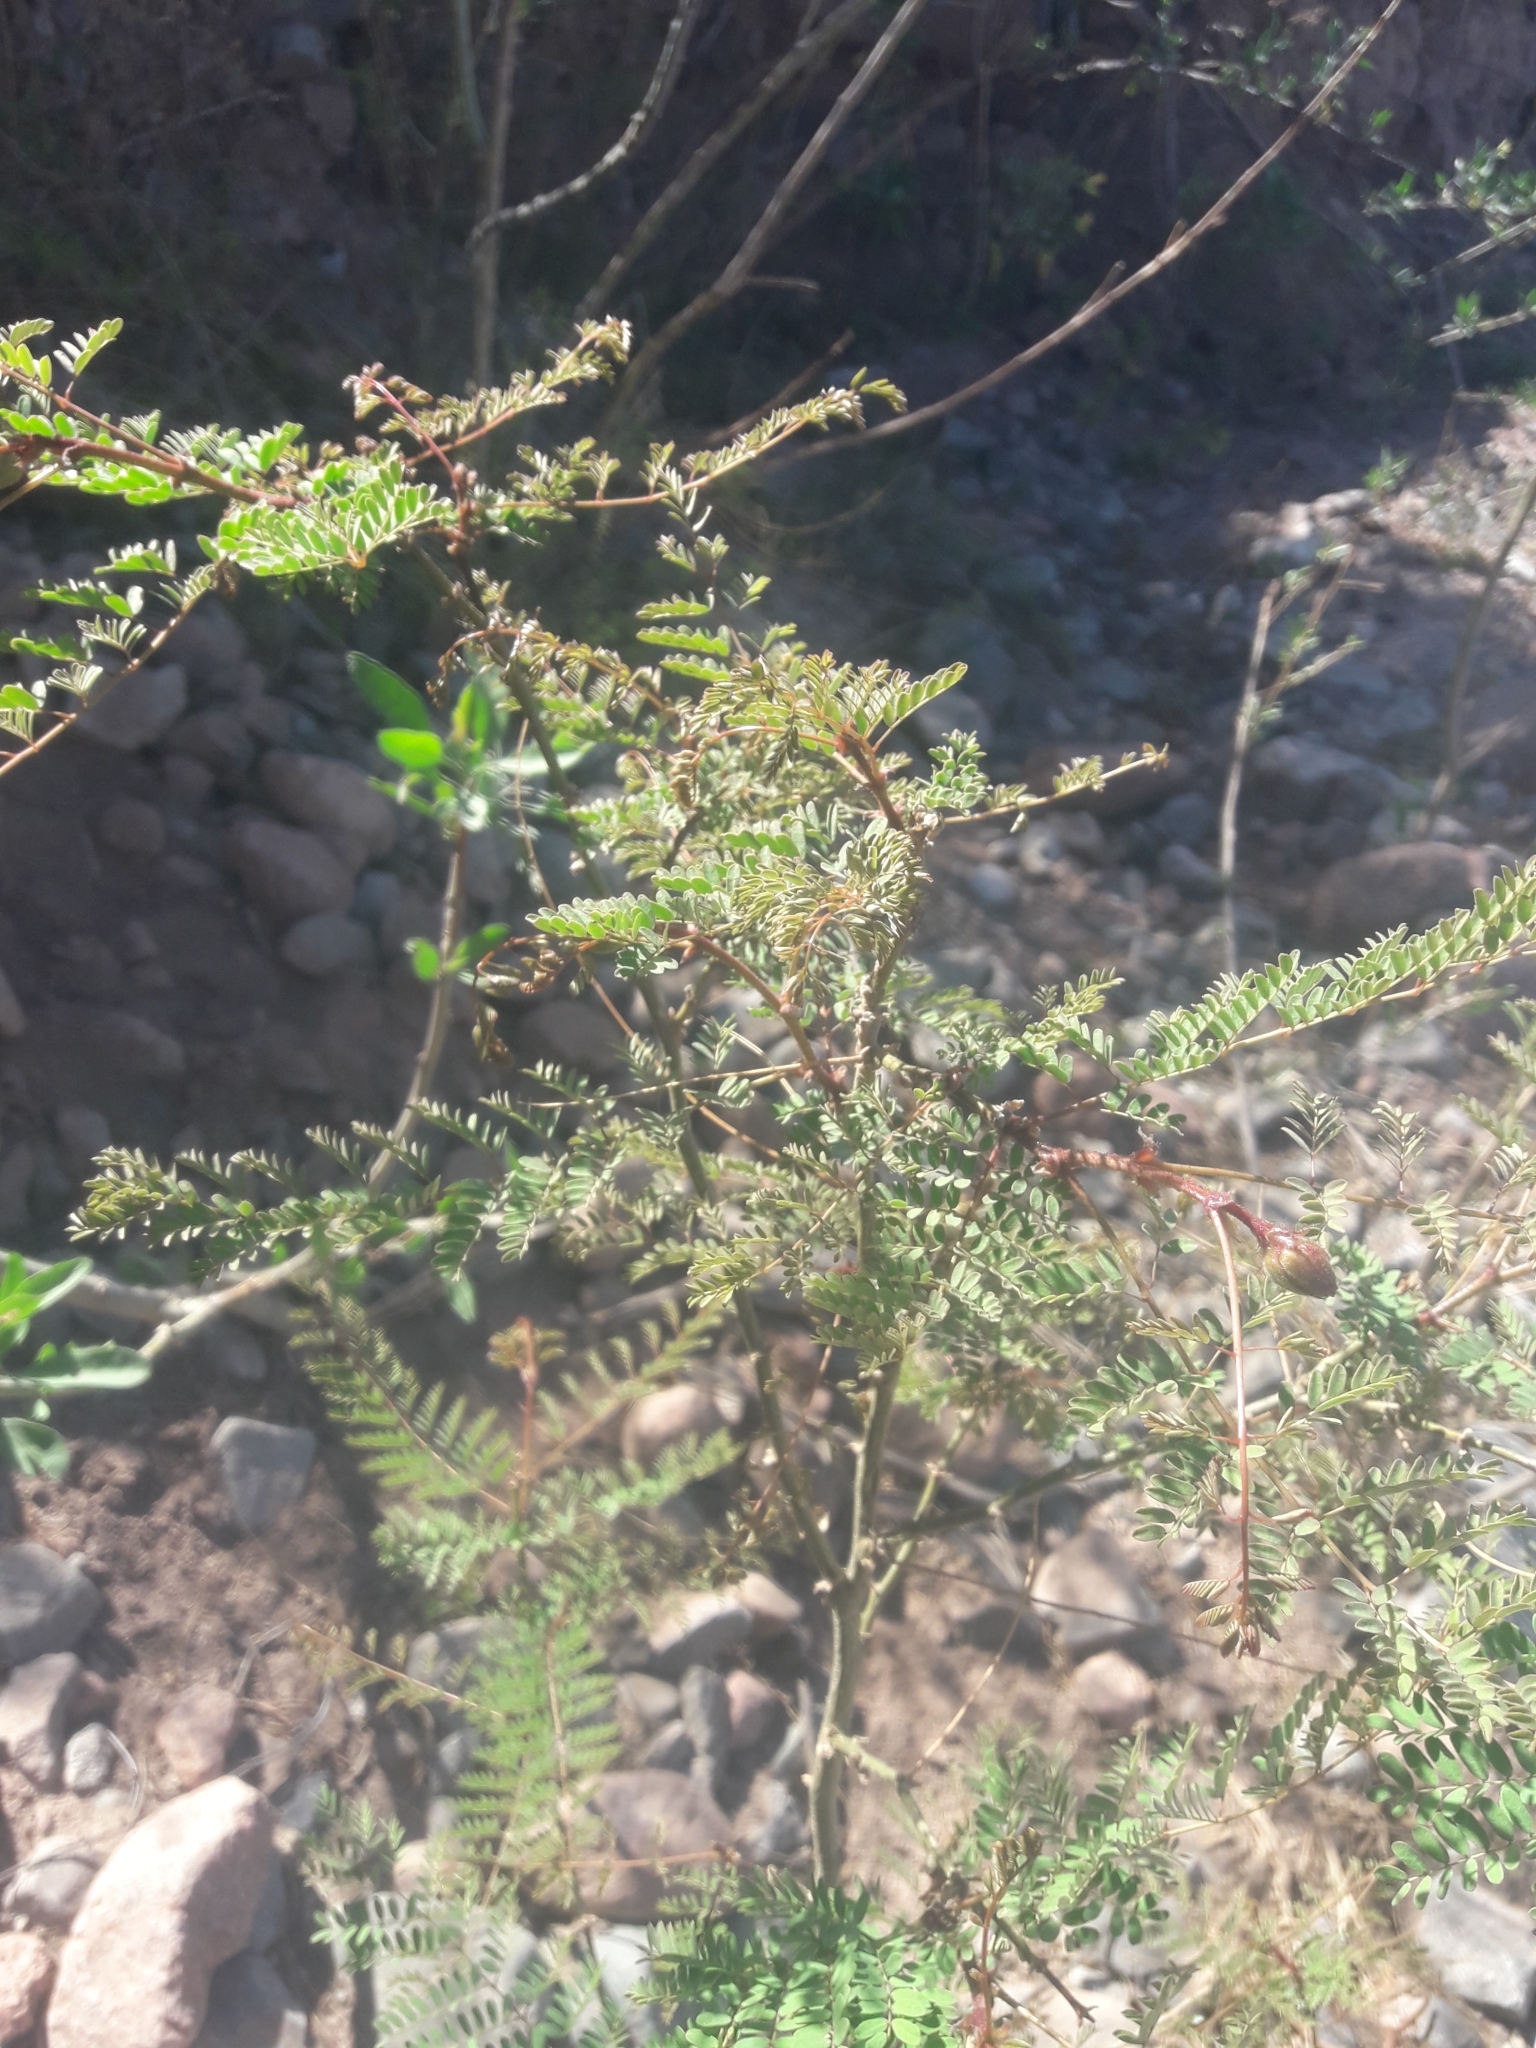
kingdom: Plantae
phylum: Tracheophyta
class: Magnoliopsida
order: Fabales
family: Fabaceae
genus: Erythrostemon
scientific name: Erythrostemon gilliesii
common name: Bird-of-paradise shrub
